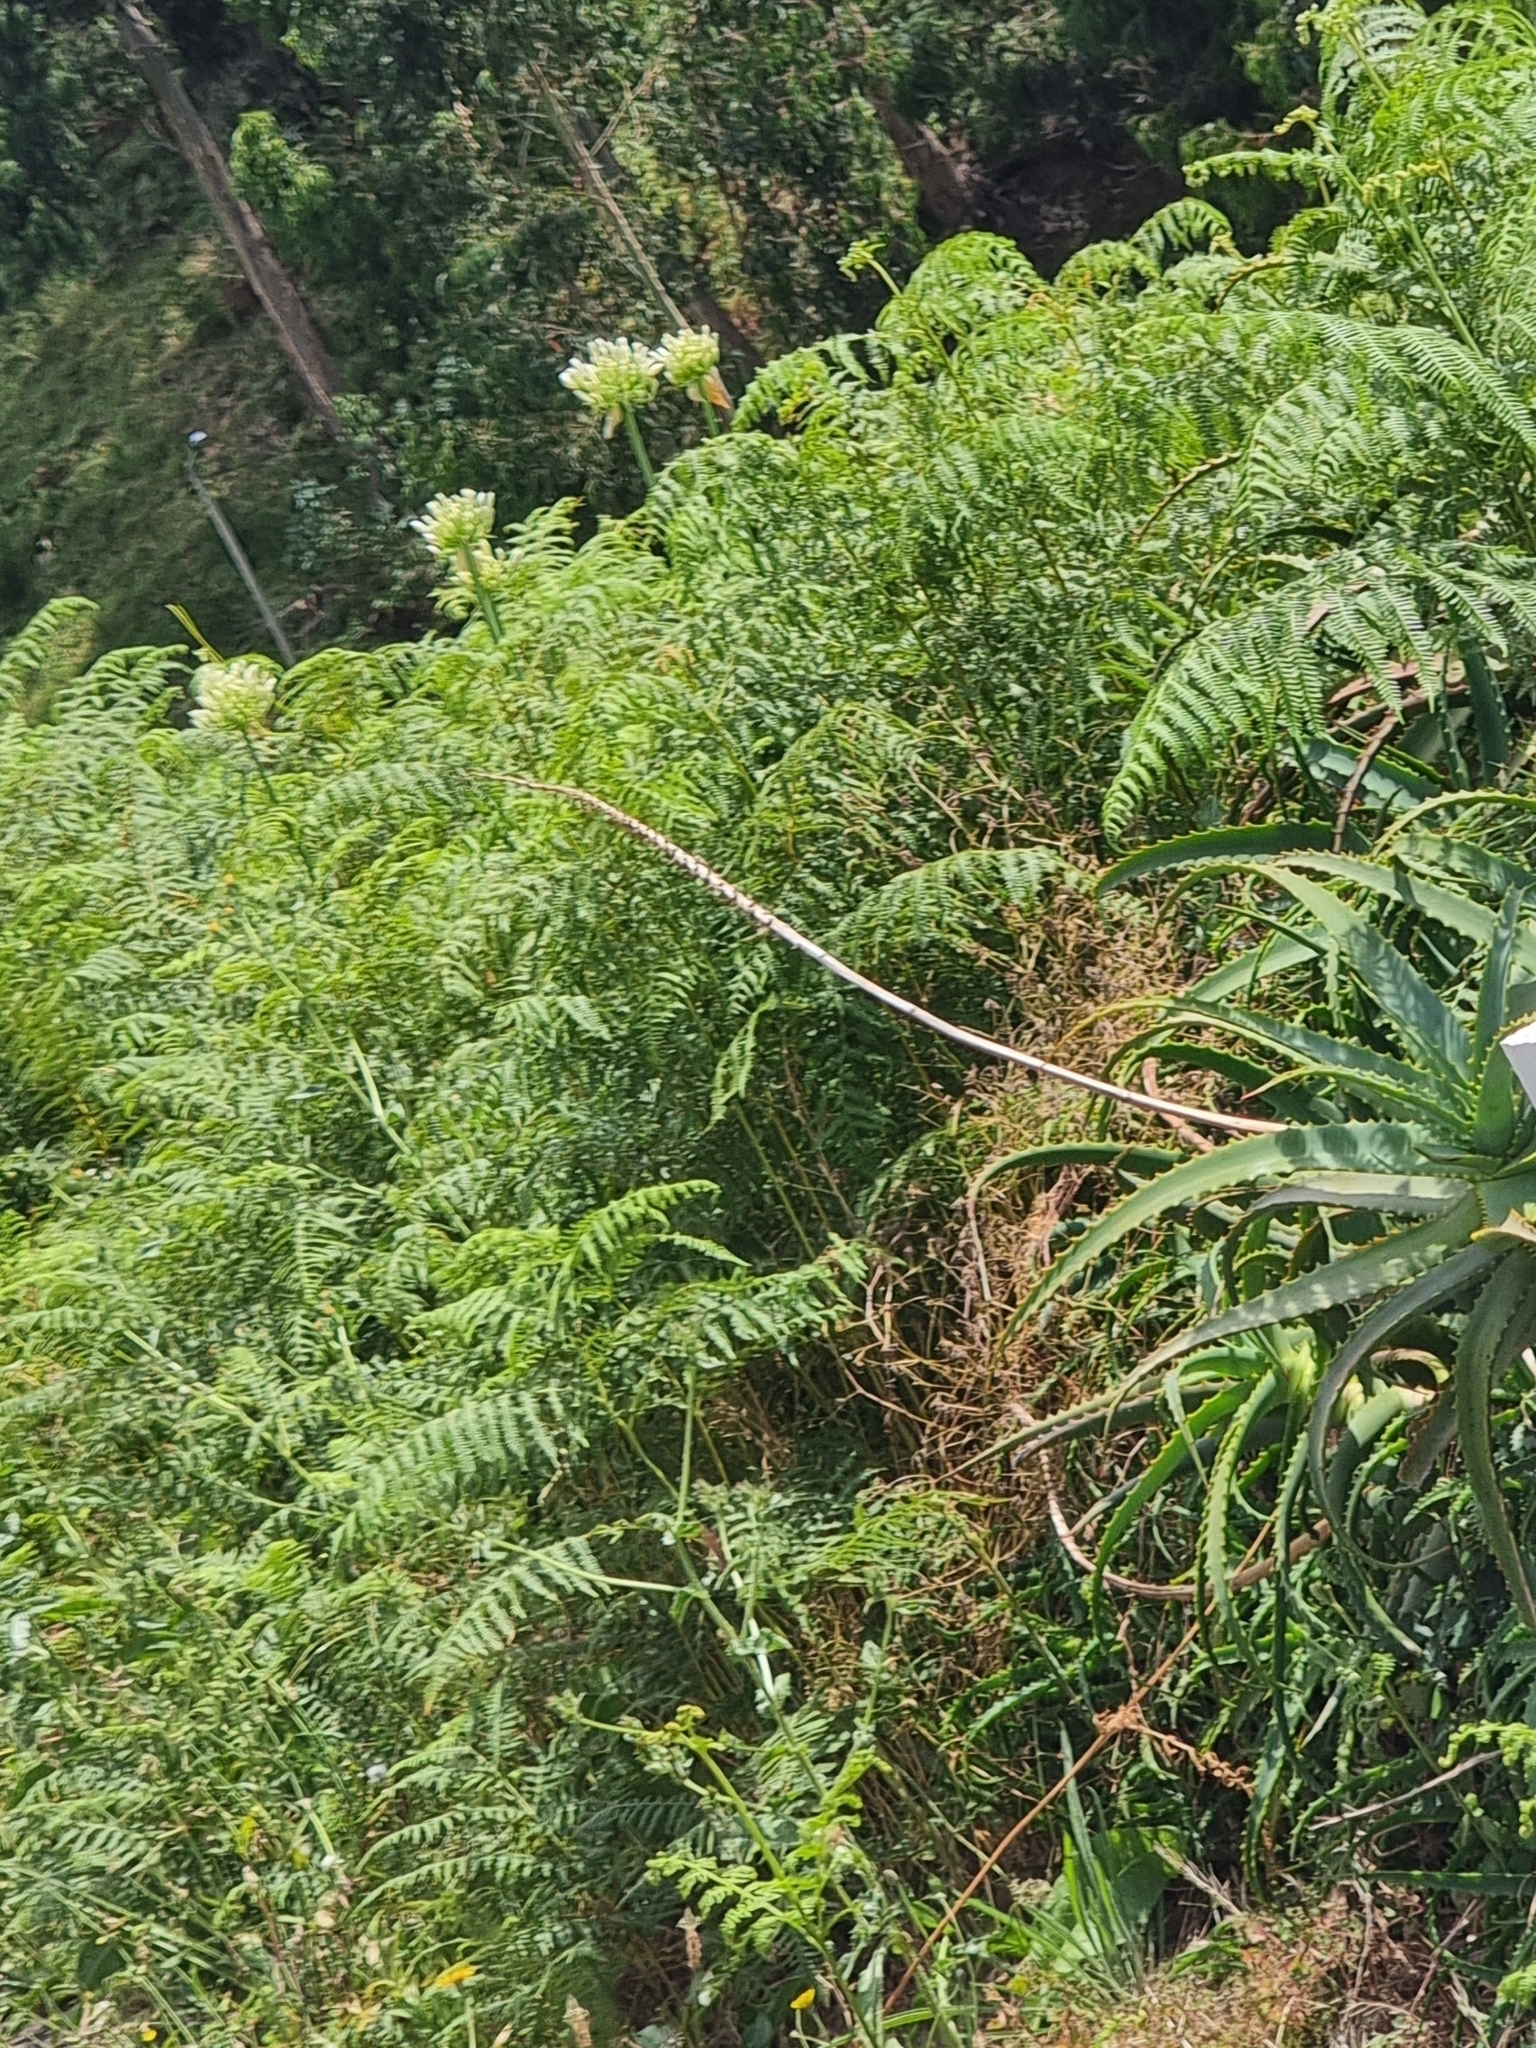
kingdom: Plantae
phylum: Tracheophyta
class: Polypodiopsida
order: Polypodiales
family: Dennstaedtiaceae
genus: Pteridium
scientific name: Pteridium aquilinum
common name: Bracken
